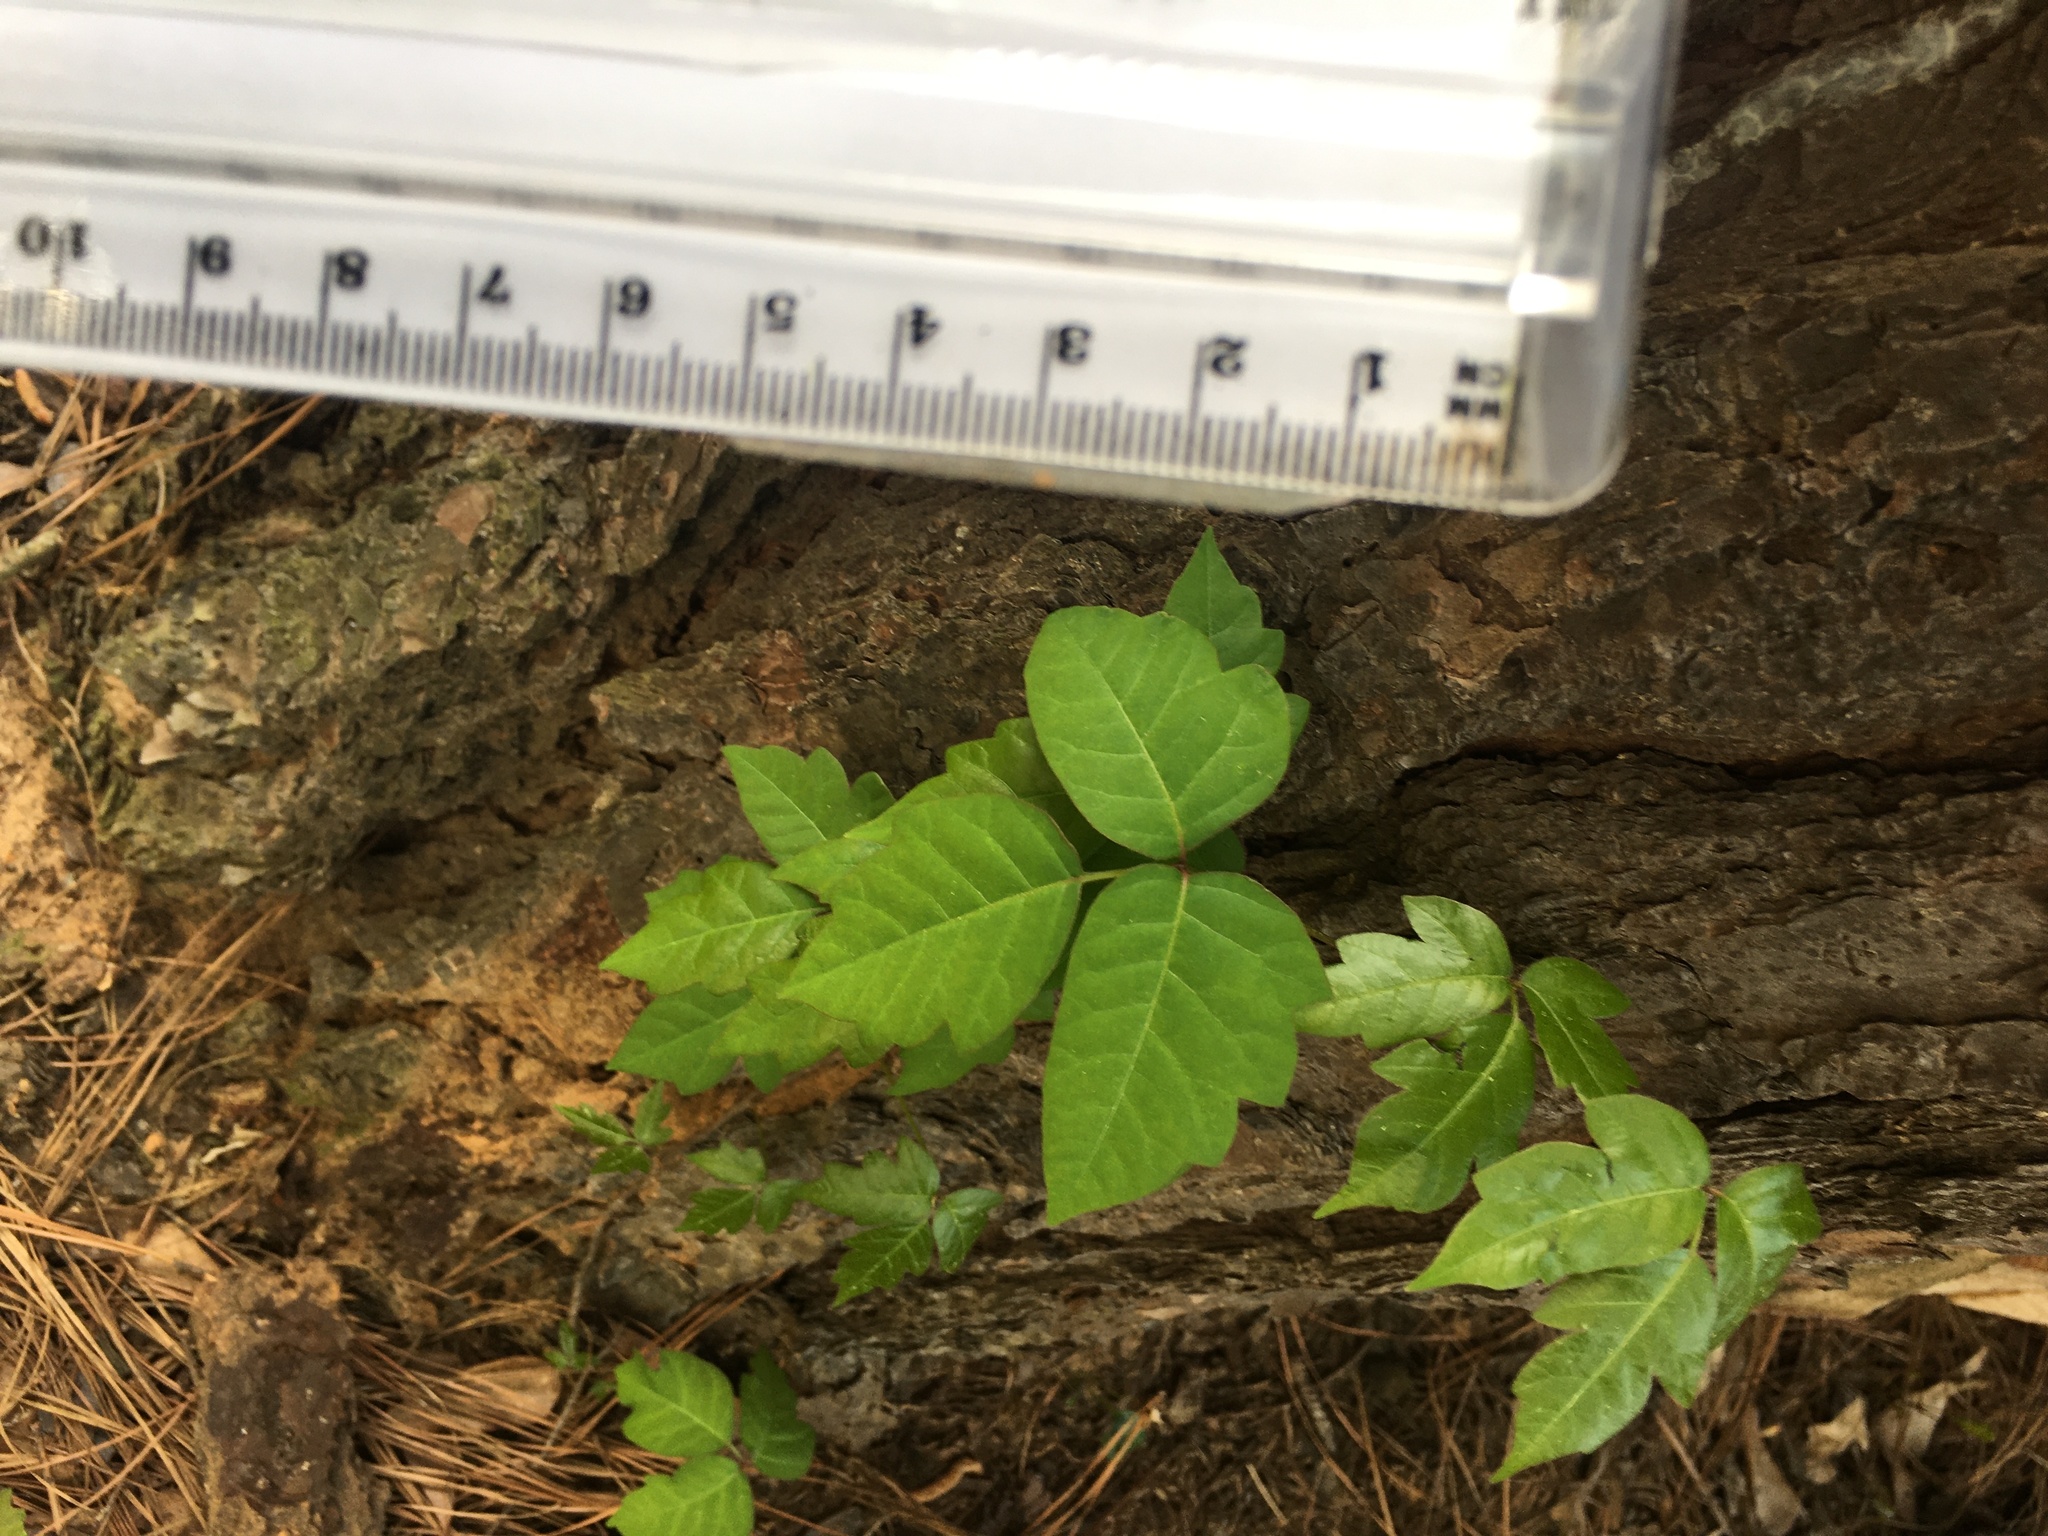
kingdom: Plantae
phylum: Tracheophyta
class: Magnoliopsida
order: Sapindales
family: Anacardiaceae
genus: Toxicodendron
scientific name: Toxicodendron radicans
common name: Poison ivy
